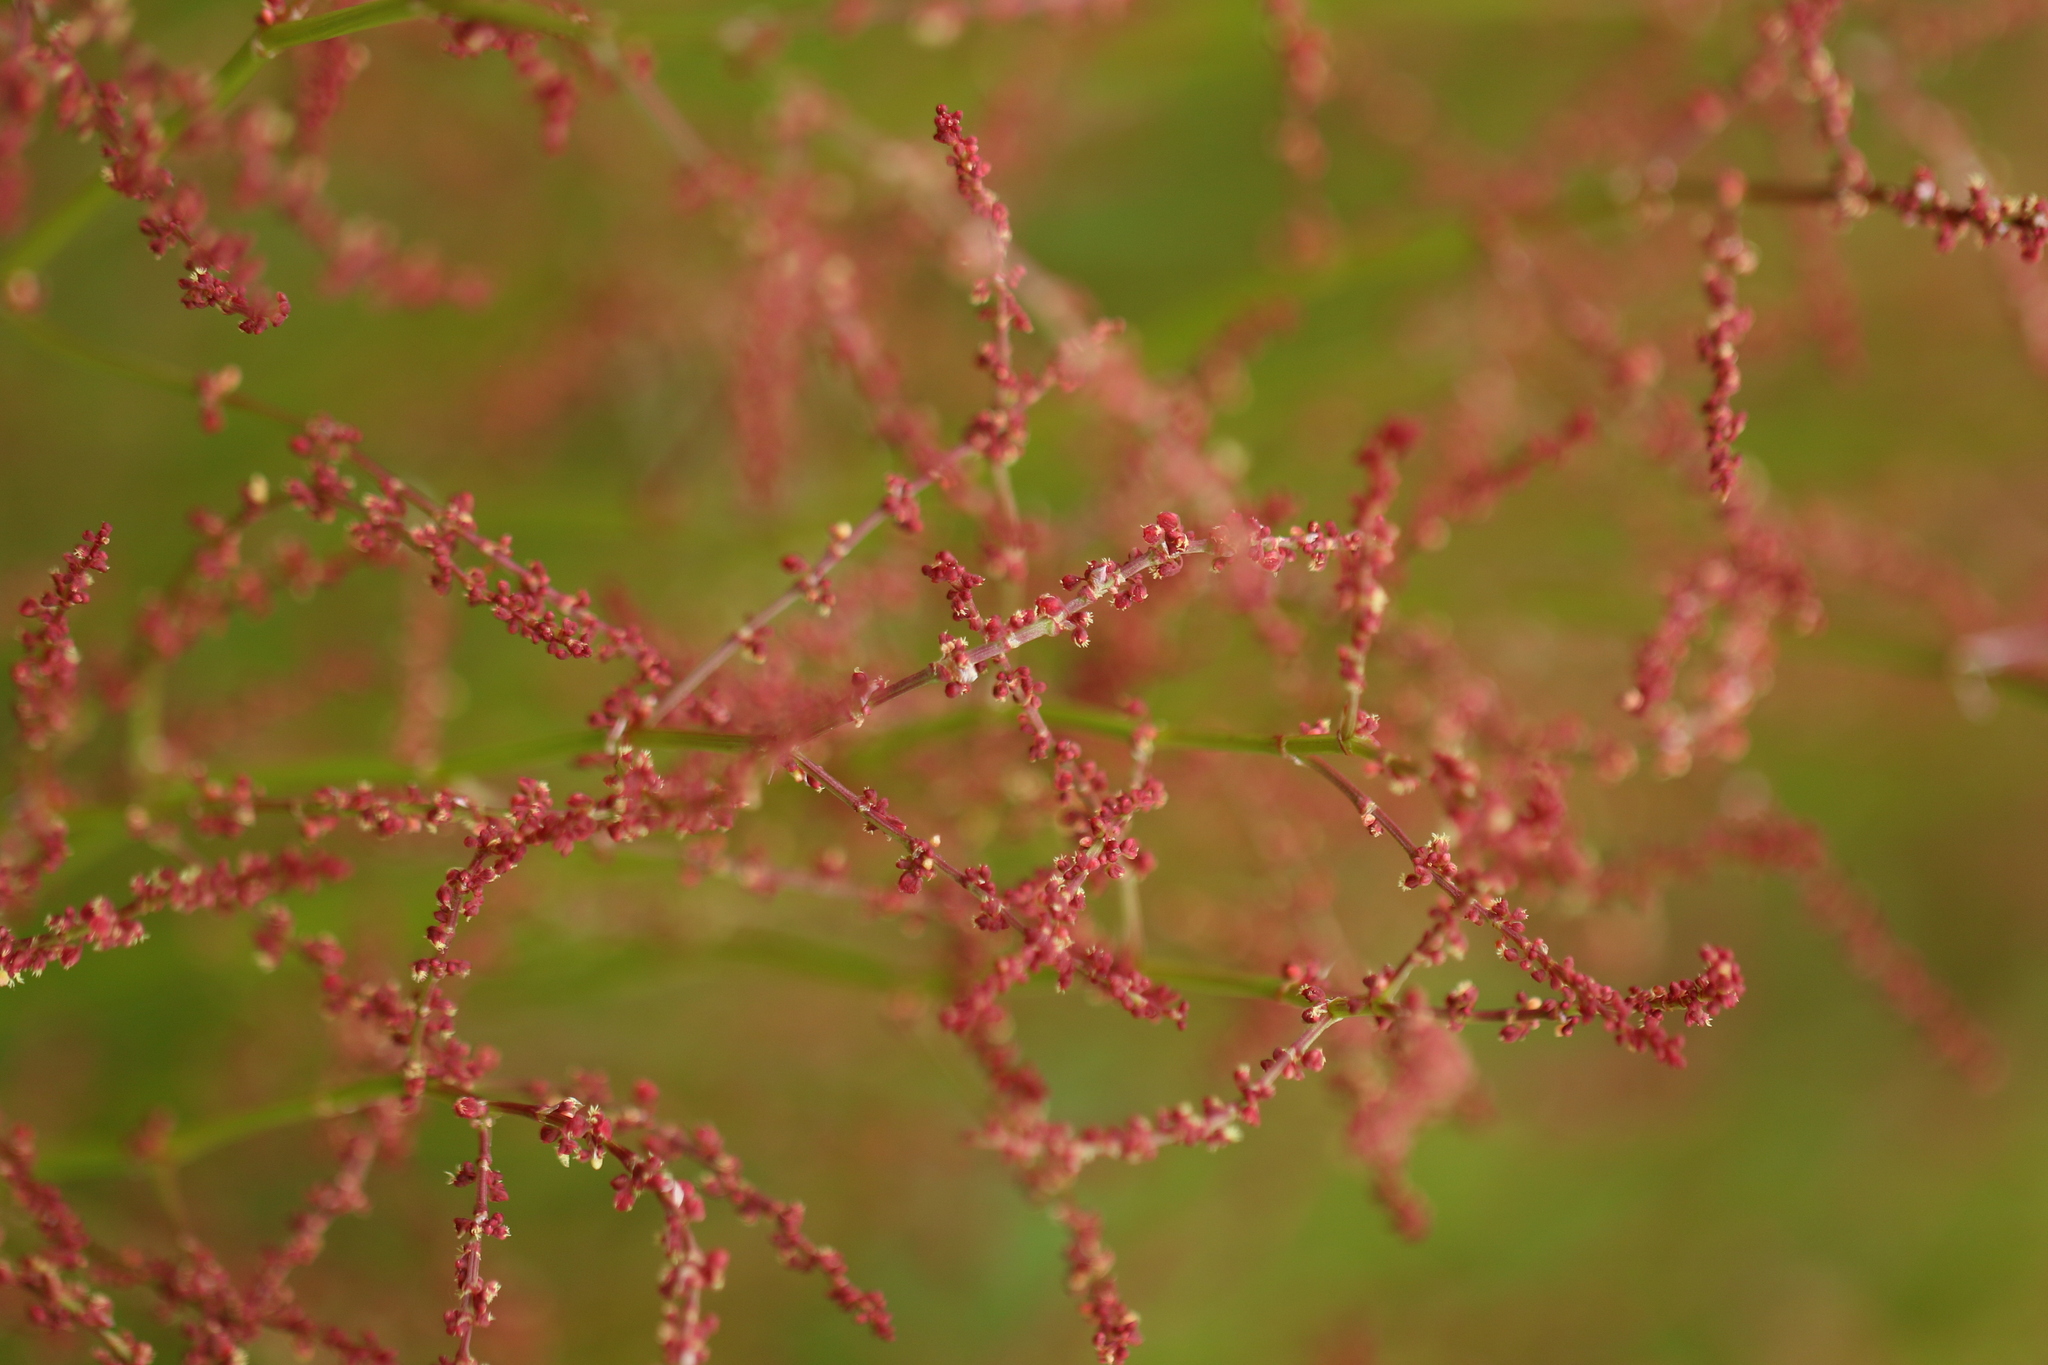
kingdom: Plantae
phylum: Tracheophyta
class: Magnoliopsida
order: Caryophyllales
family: Polygonaceae
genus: Rumex
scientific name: Rumex acetosella
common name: Common sheep sorrel
